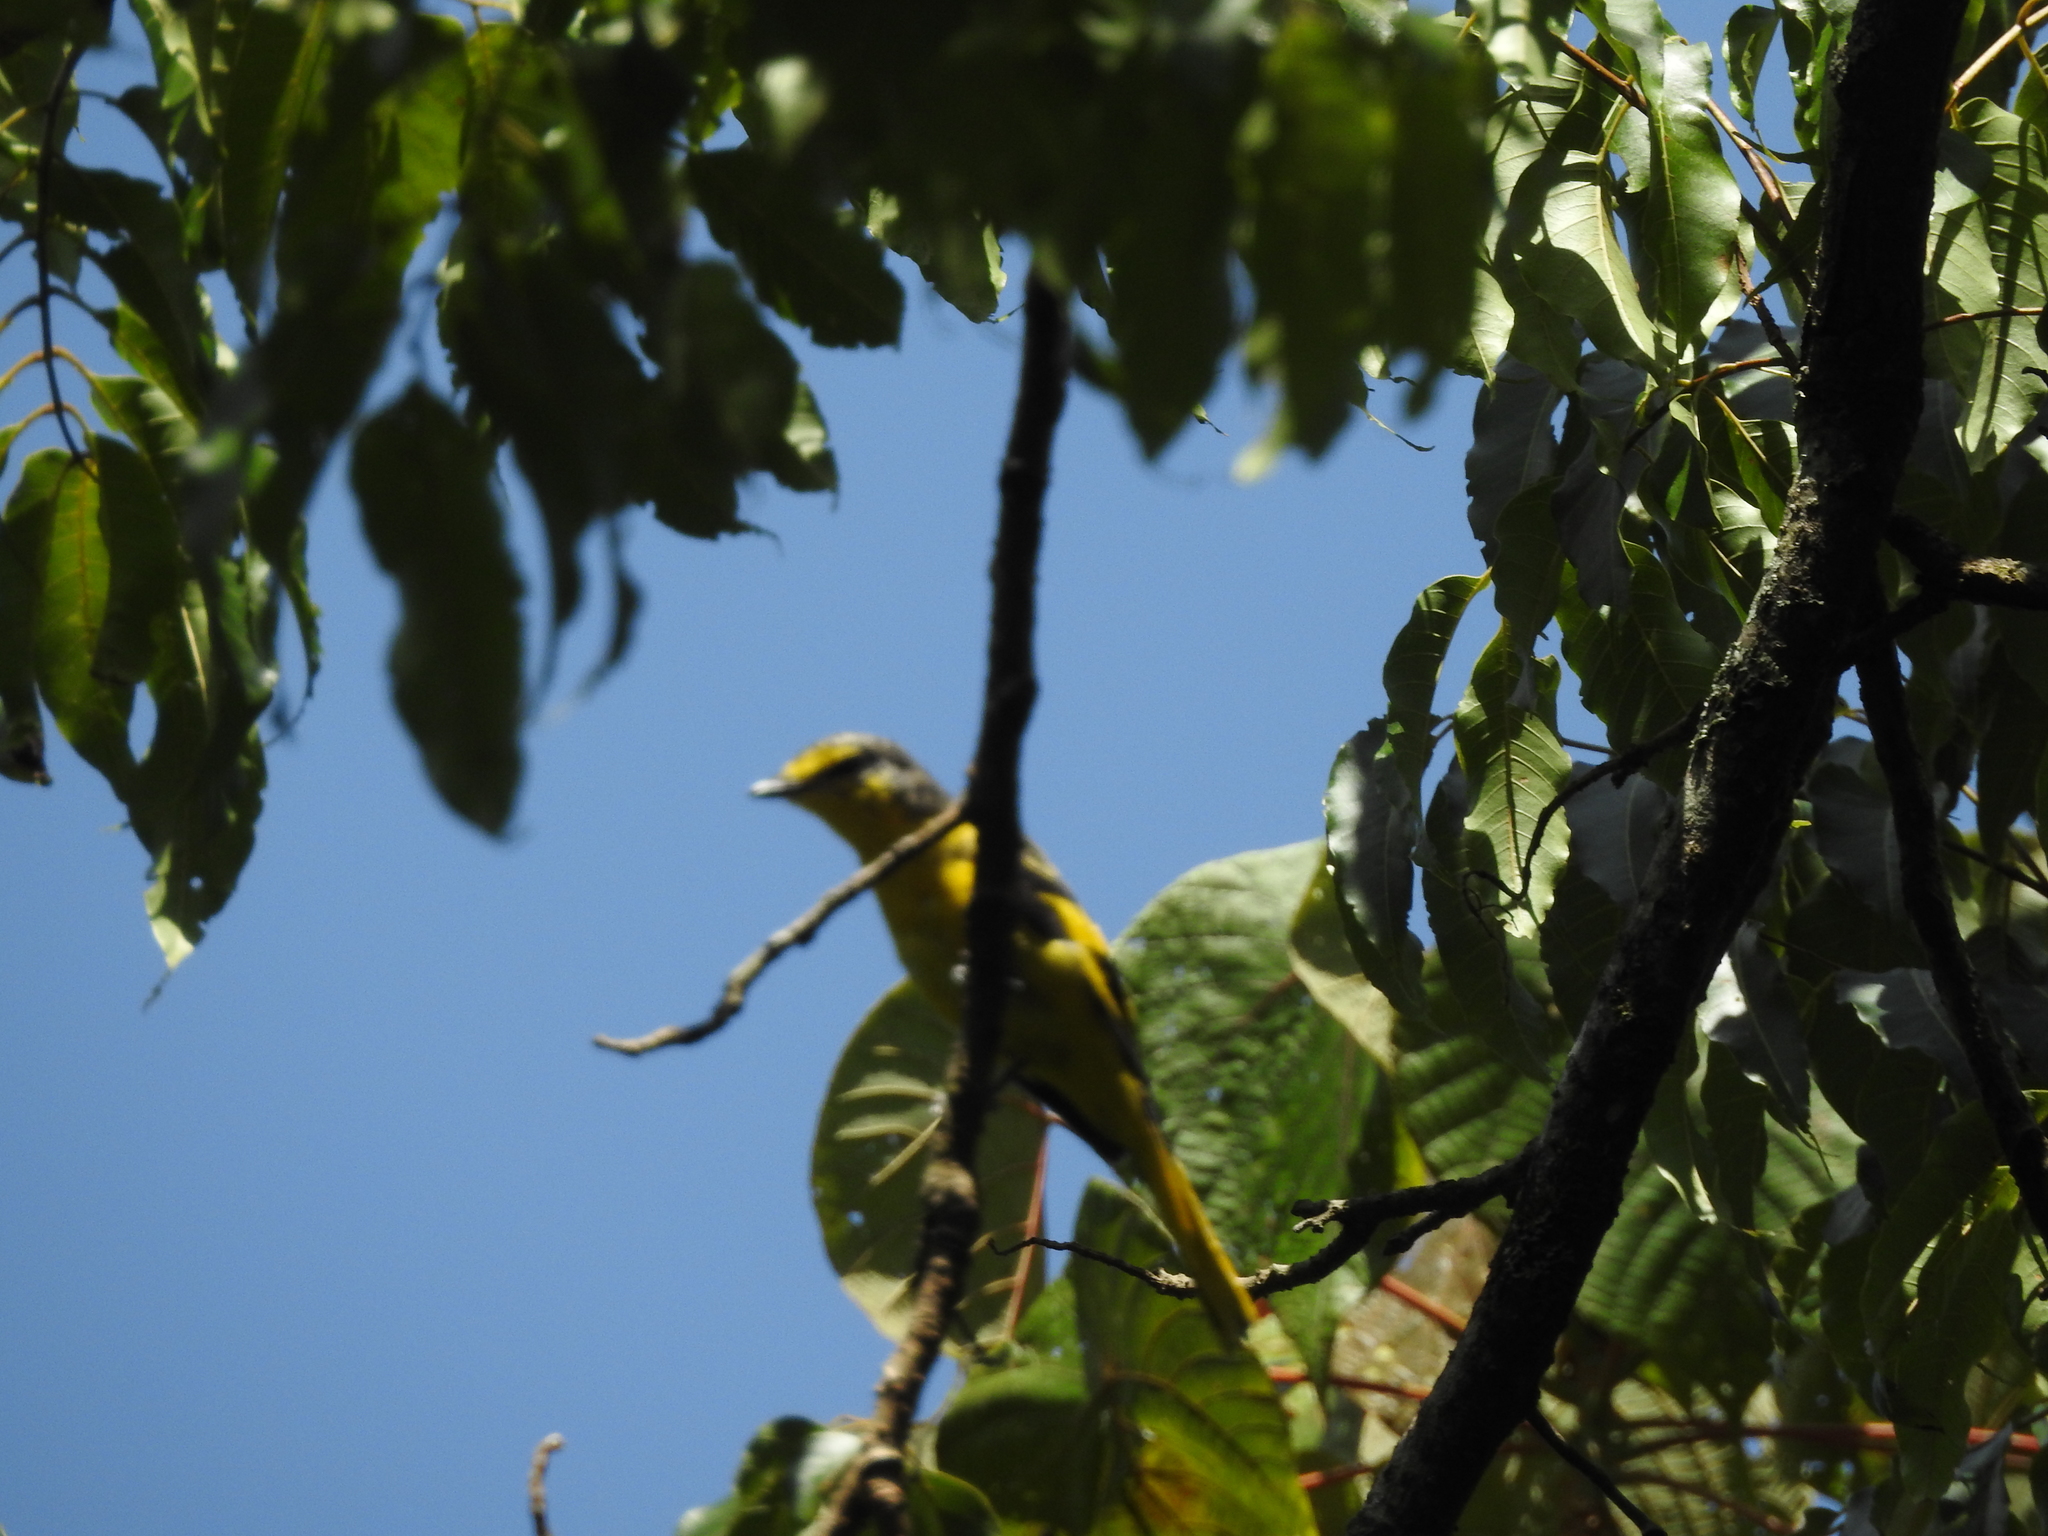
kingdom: Animalia
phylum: Chordata
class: Aves
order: Passeriformes
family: Campephagidae
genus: Pericrocotus
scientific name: Pericrocotus flammeus
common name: Orange minivet
